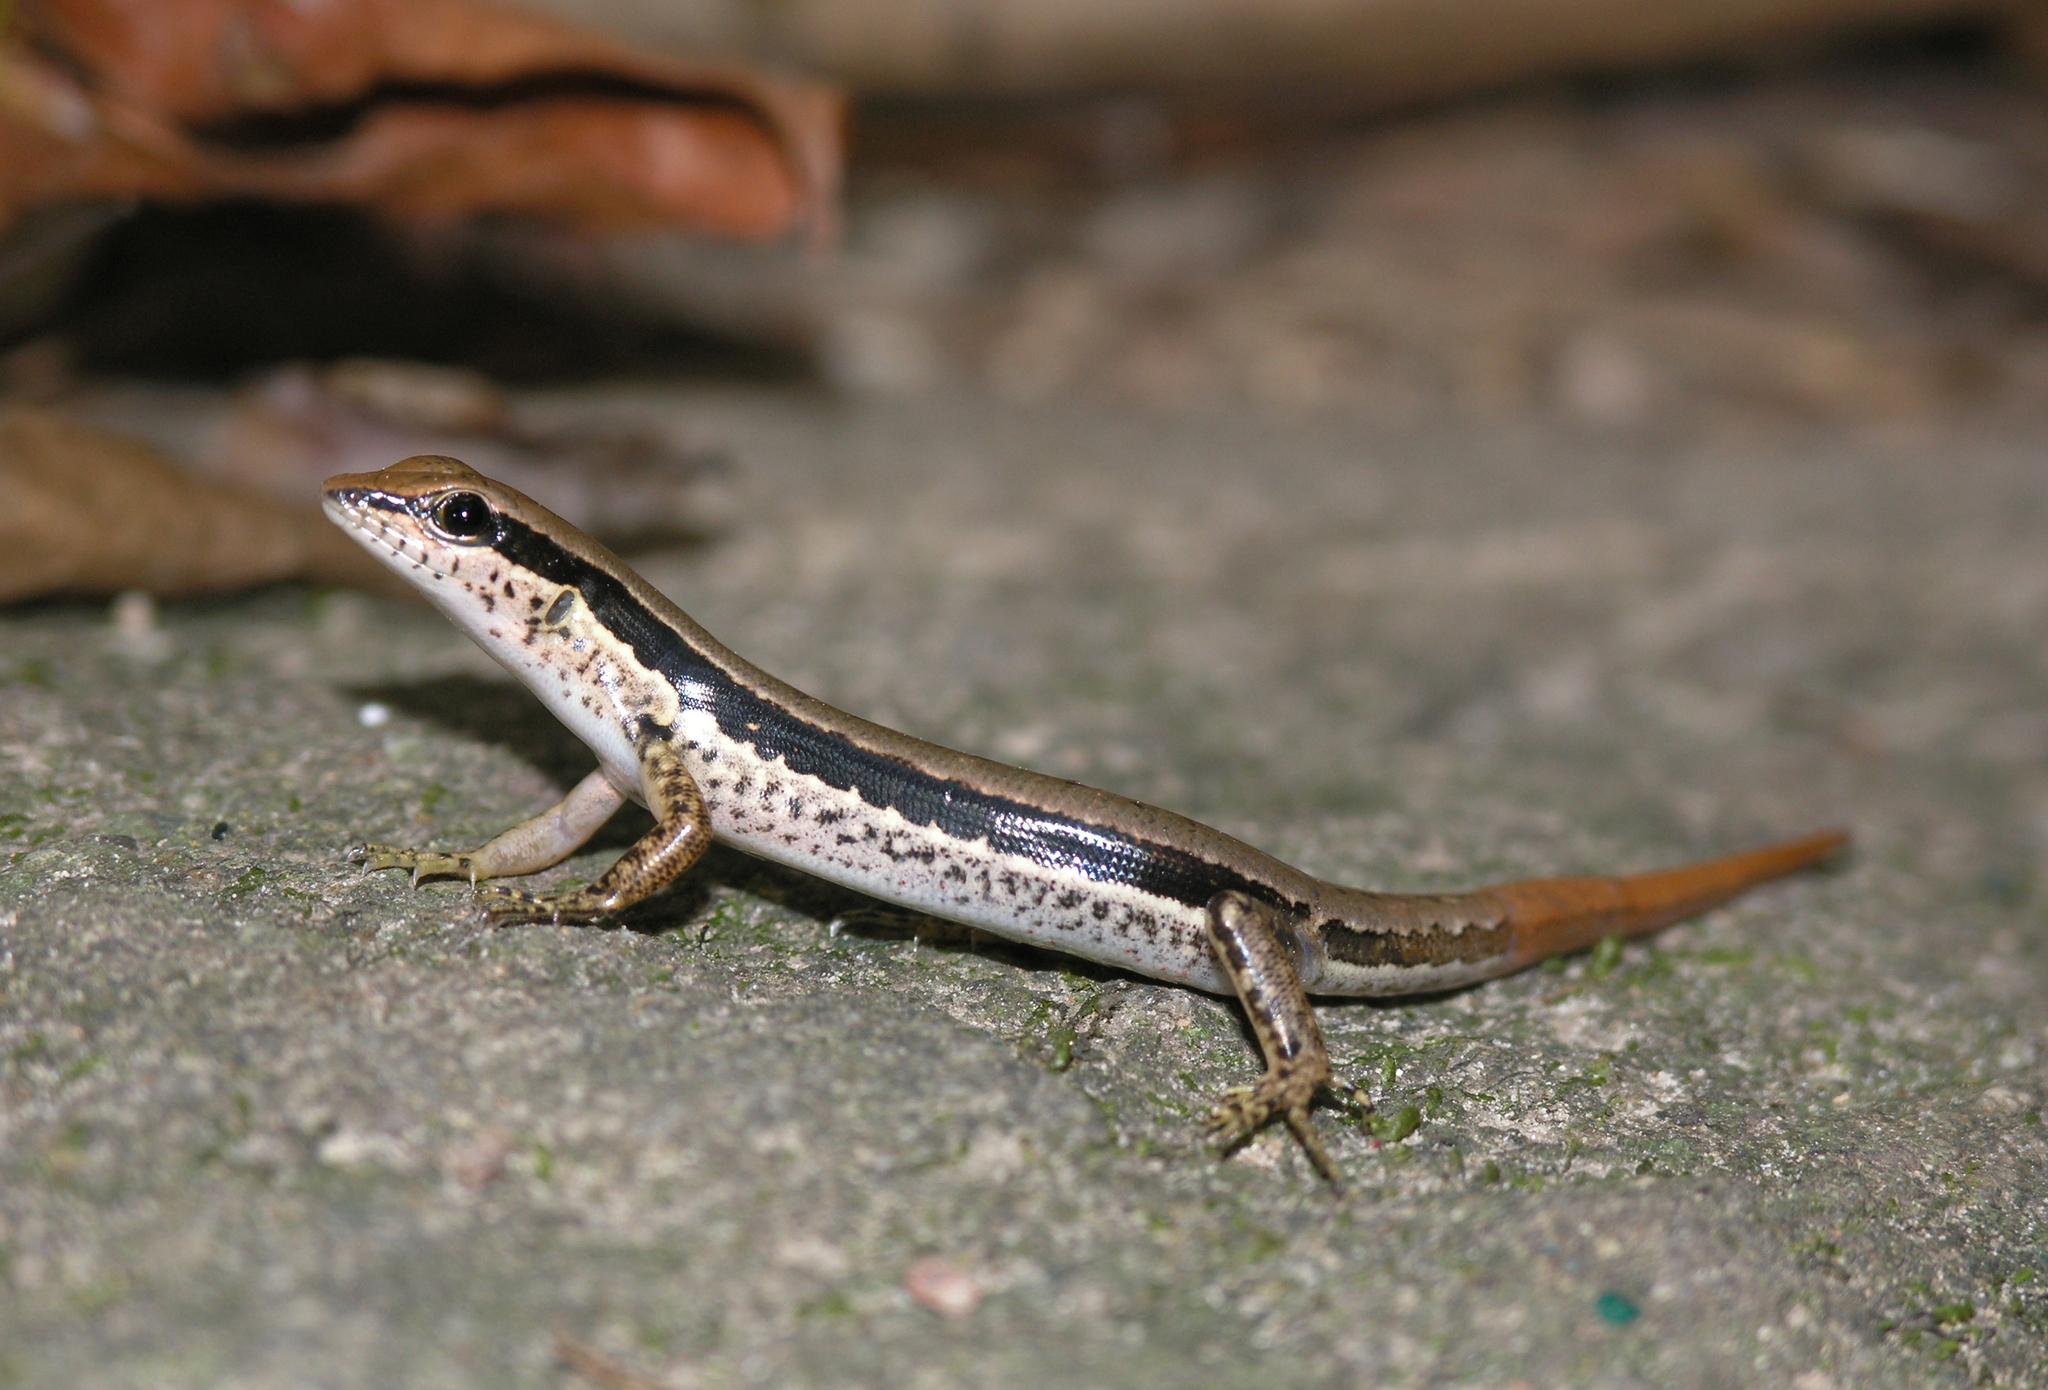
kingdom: Animalia
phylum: Chordata
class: Squamata
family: Scincidae
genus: Sphenomorphus
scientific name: Sphenomorphus maculatus
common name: Maculated forest skink
